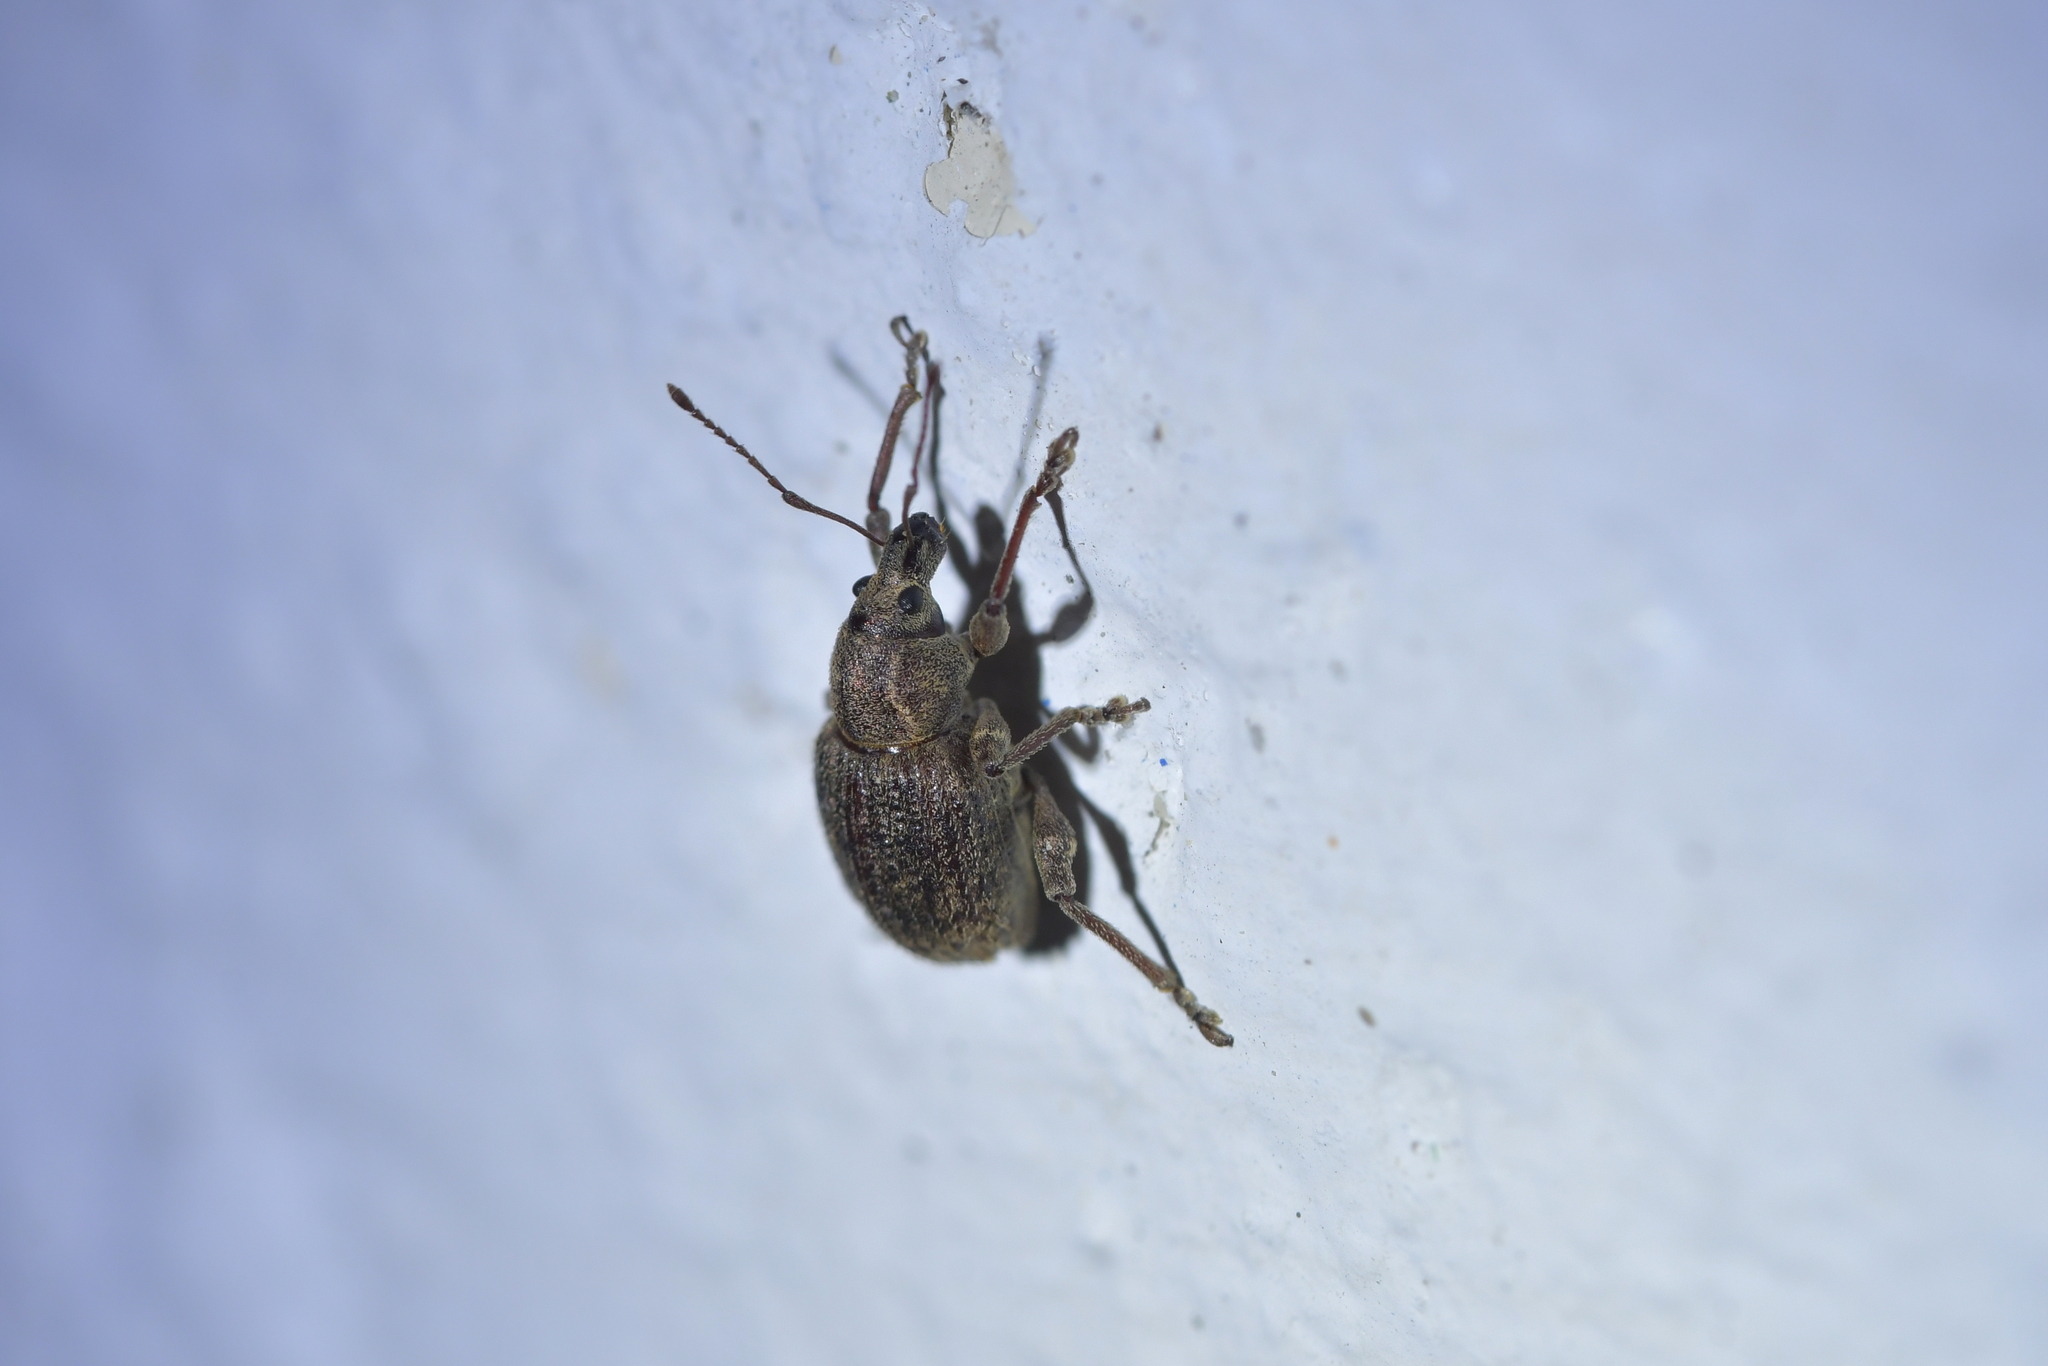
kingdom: Animalia
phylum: Arthropoda
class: Insecta
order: Coleoptera
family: Curculionidae
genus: Phlyctinus
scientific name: Phlyctinus callosus
